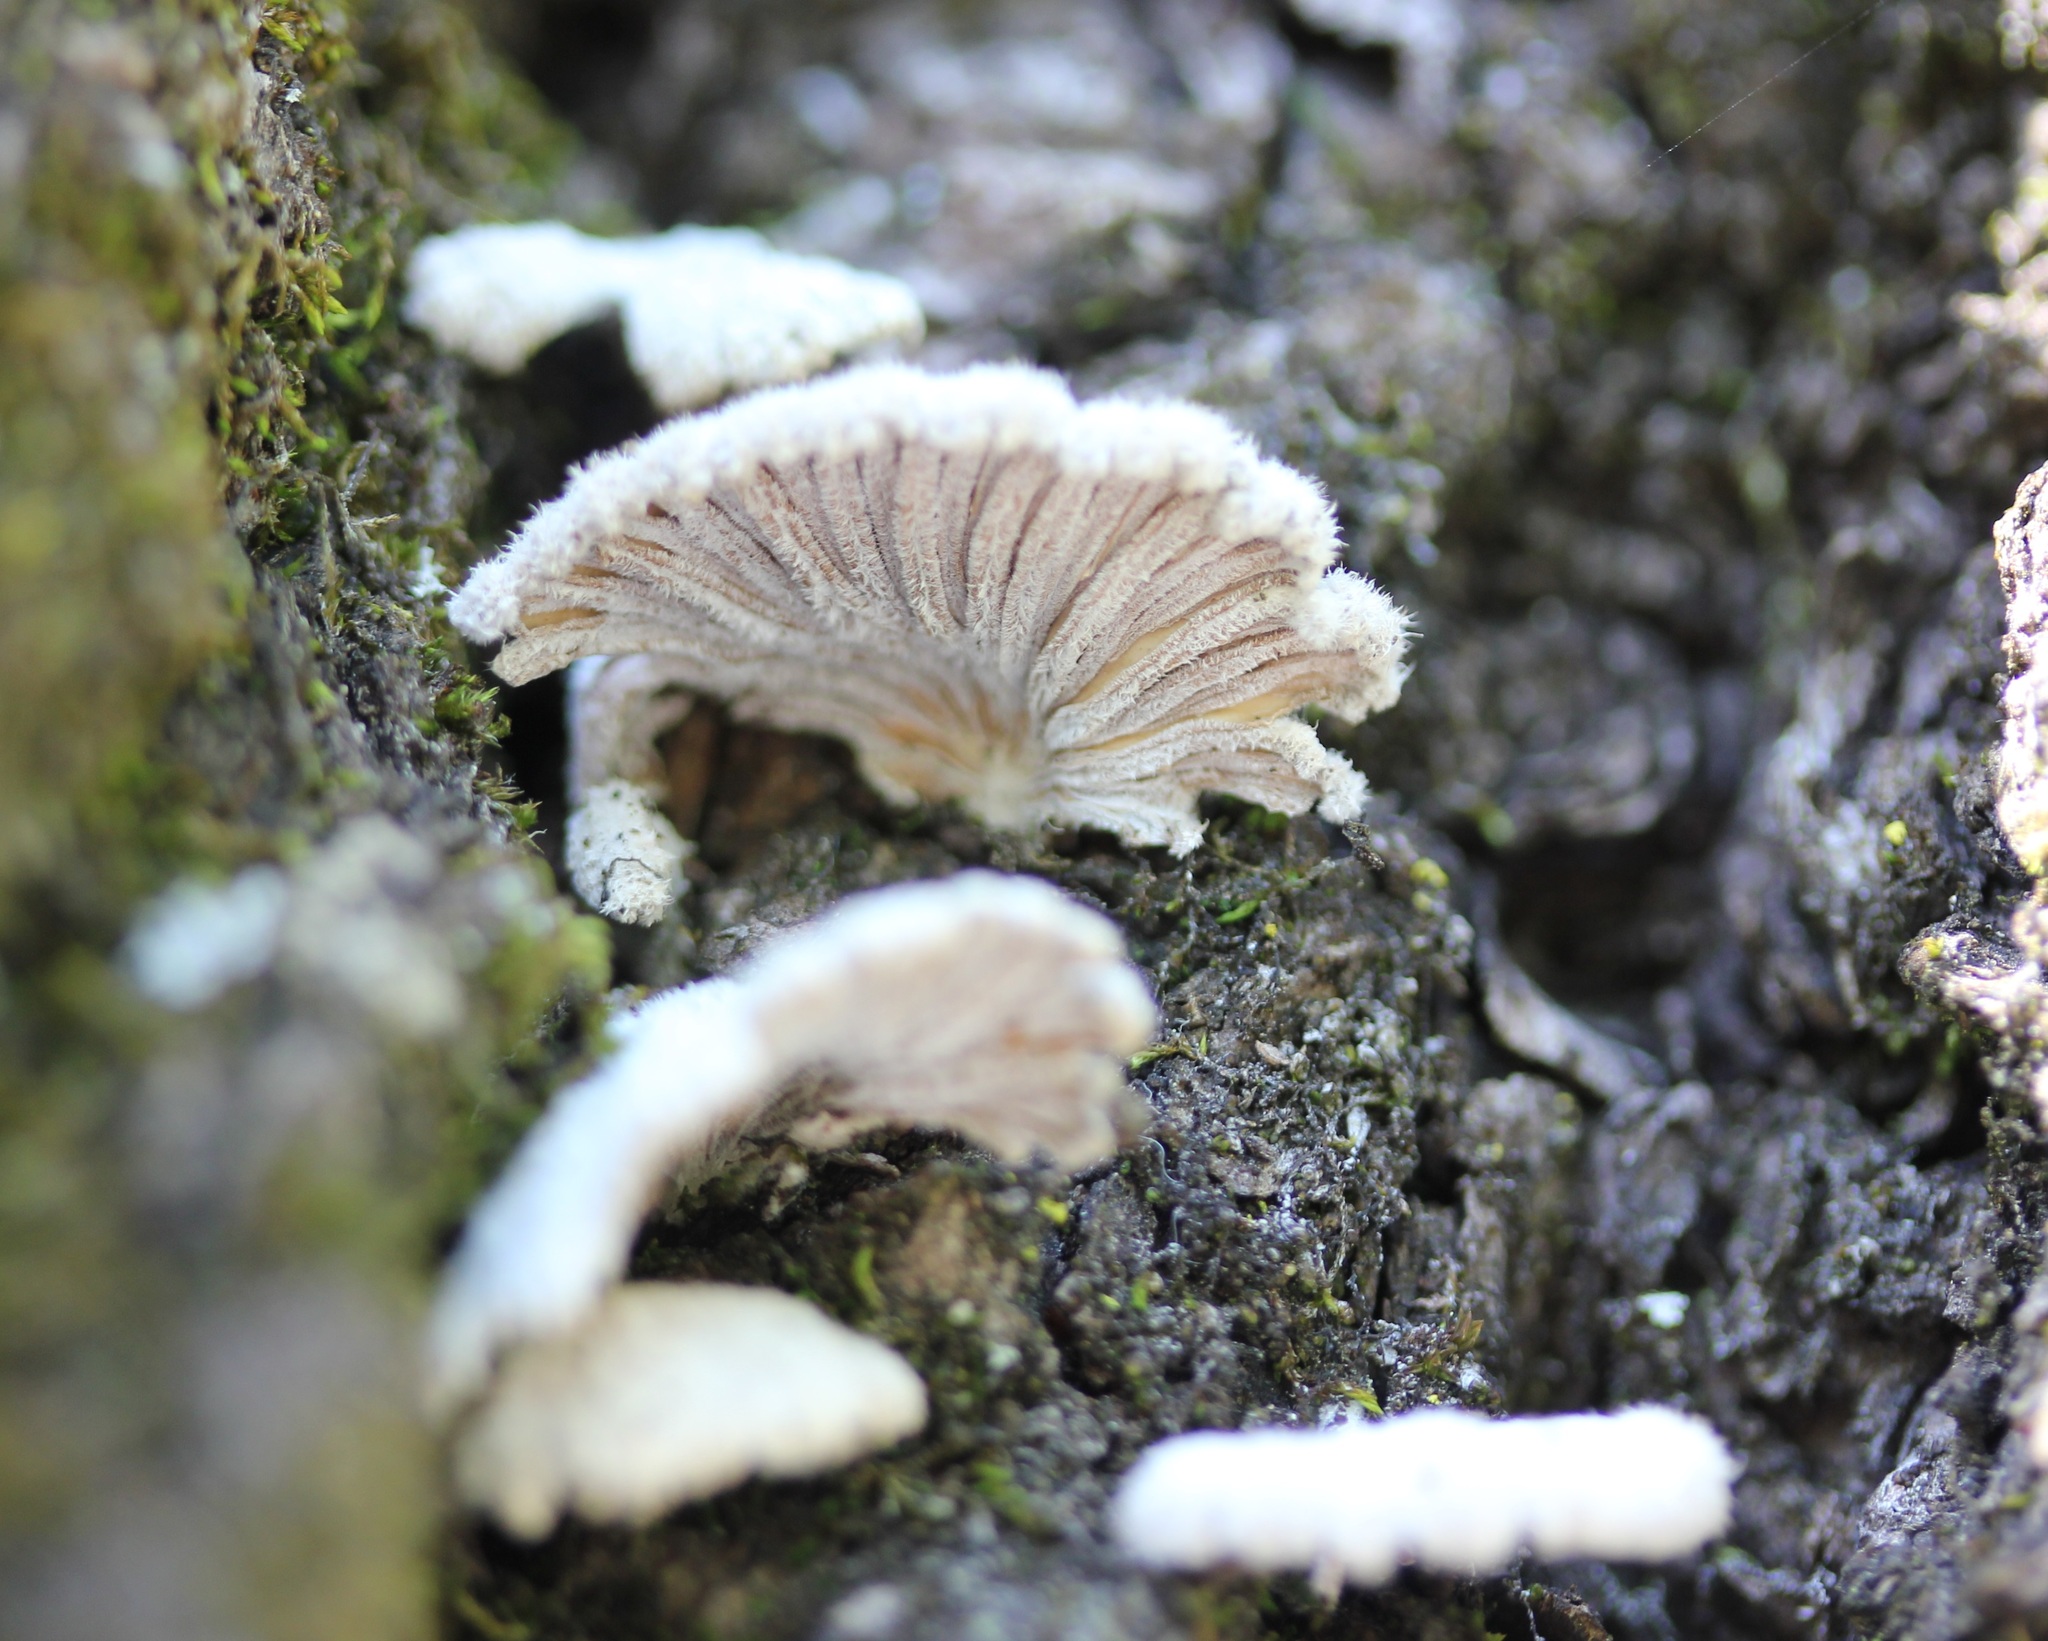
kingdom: Fungi
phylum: Basidiomycota
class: Agaricomycetes
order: Agaricales
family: Schizophyllaceae
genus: Schizophyllum
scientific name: Schizophyllum commune
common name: Common porecrust
